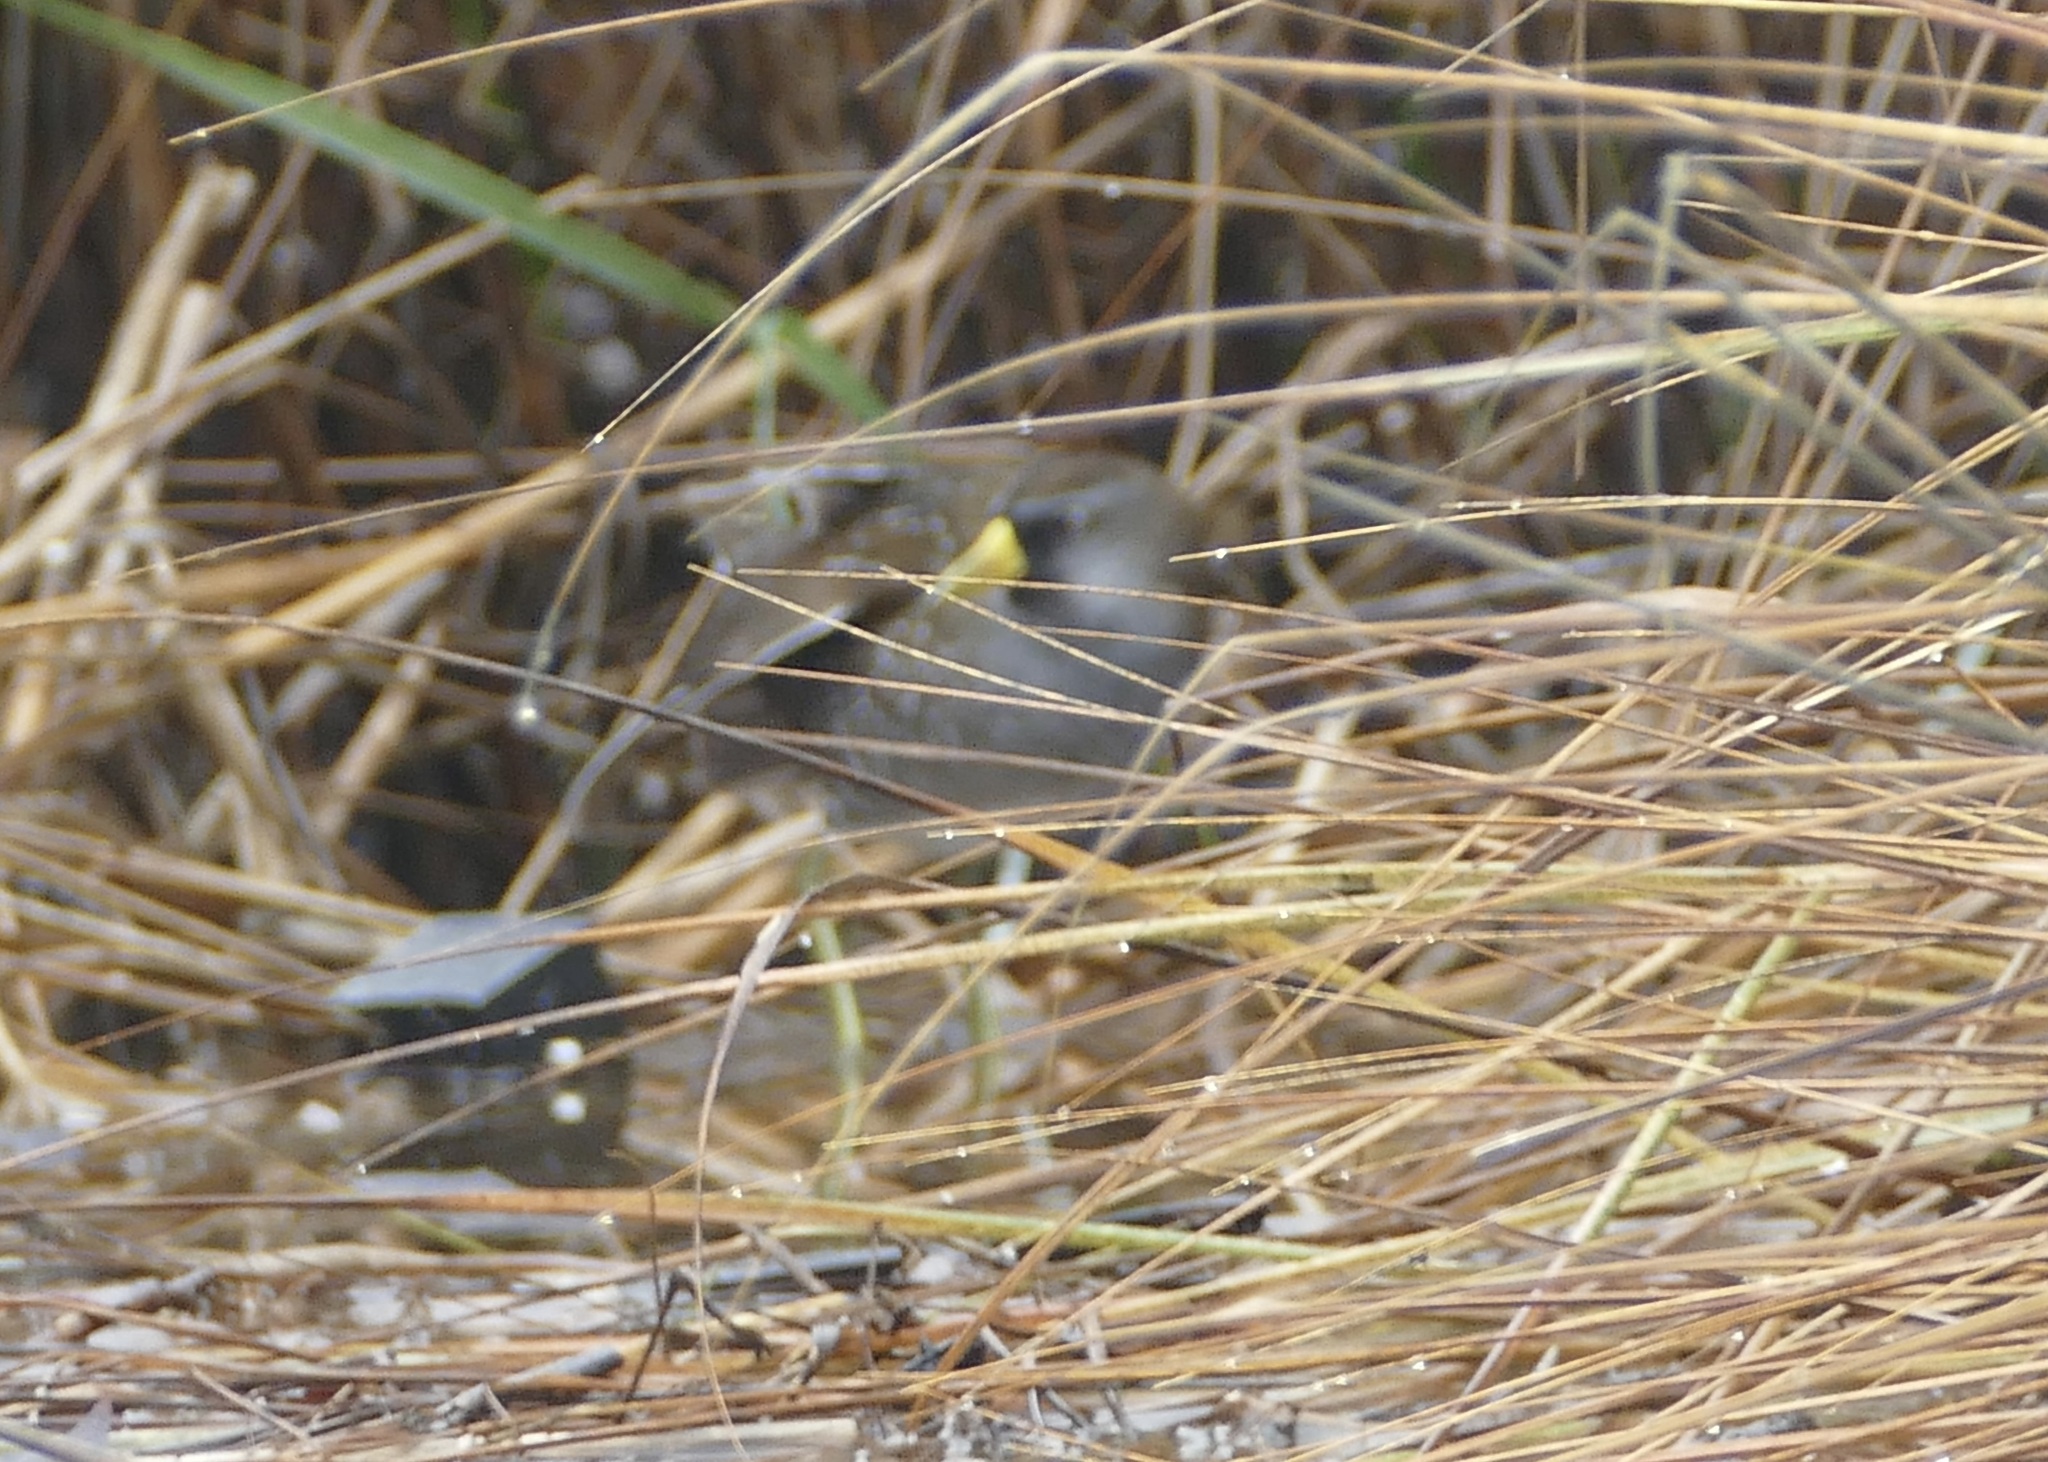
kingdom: Animalia
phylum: Chordata
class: Aves
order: Gruiformes
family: Rallidae
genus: Porzana
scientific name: Porzana carolina
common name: Sora
